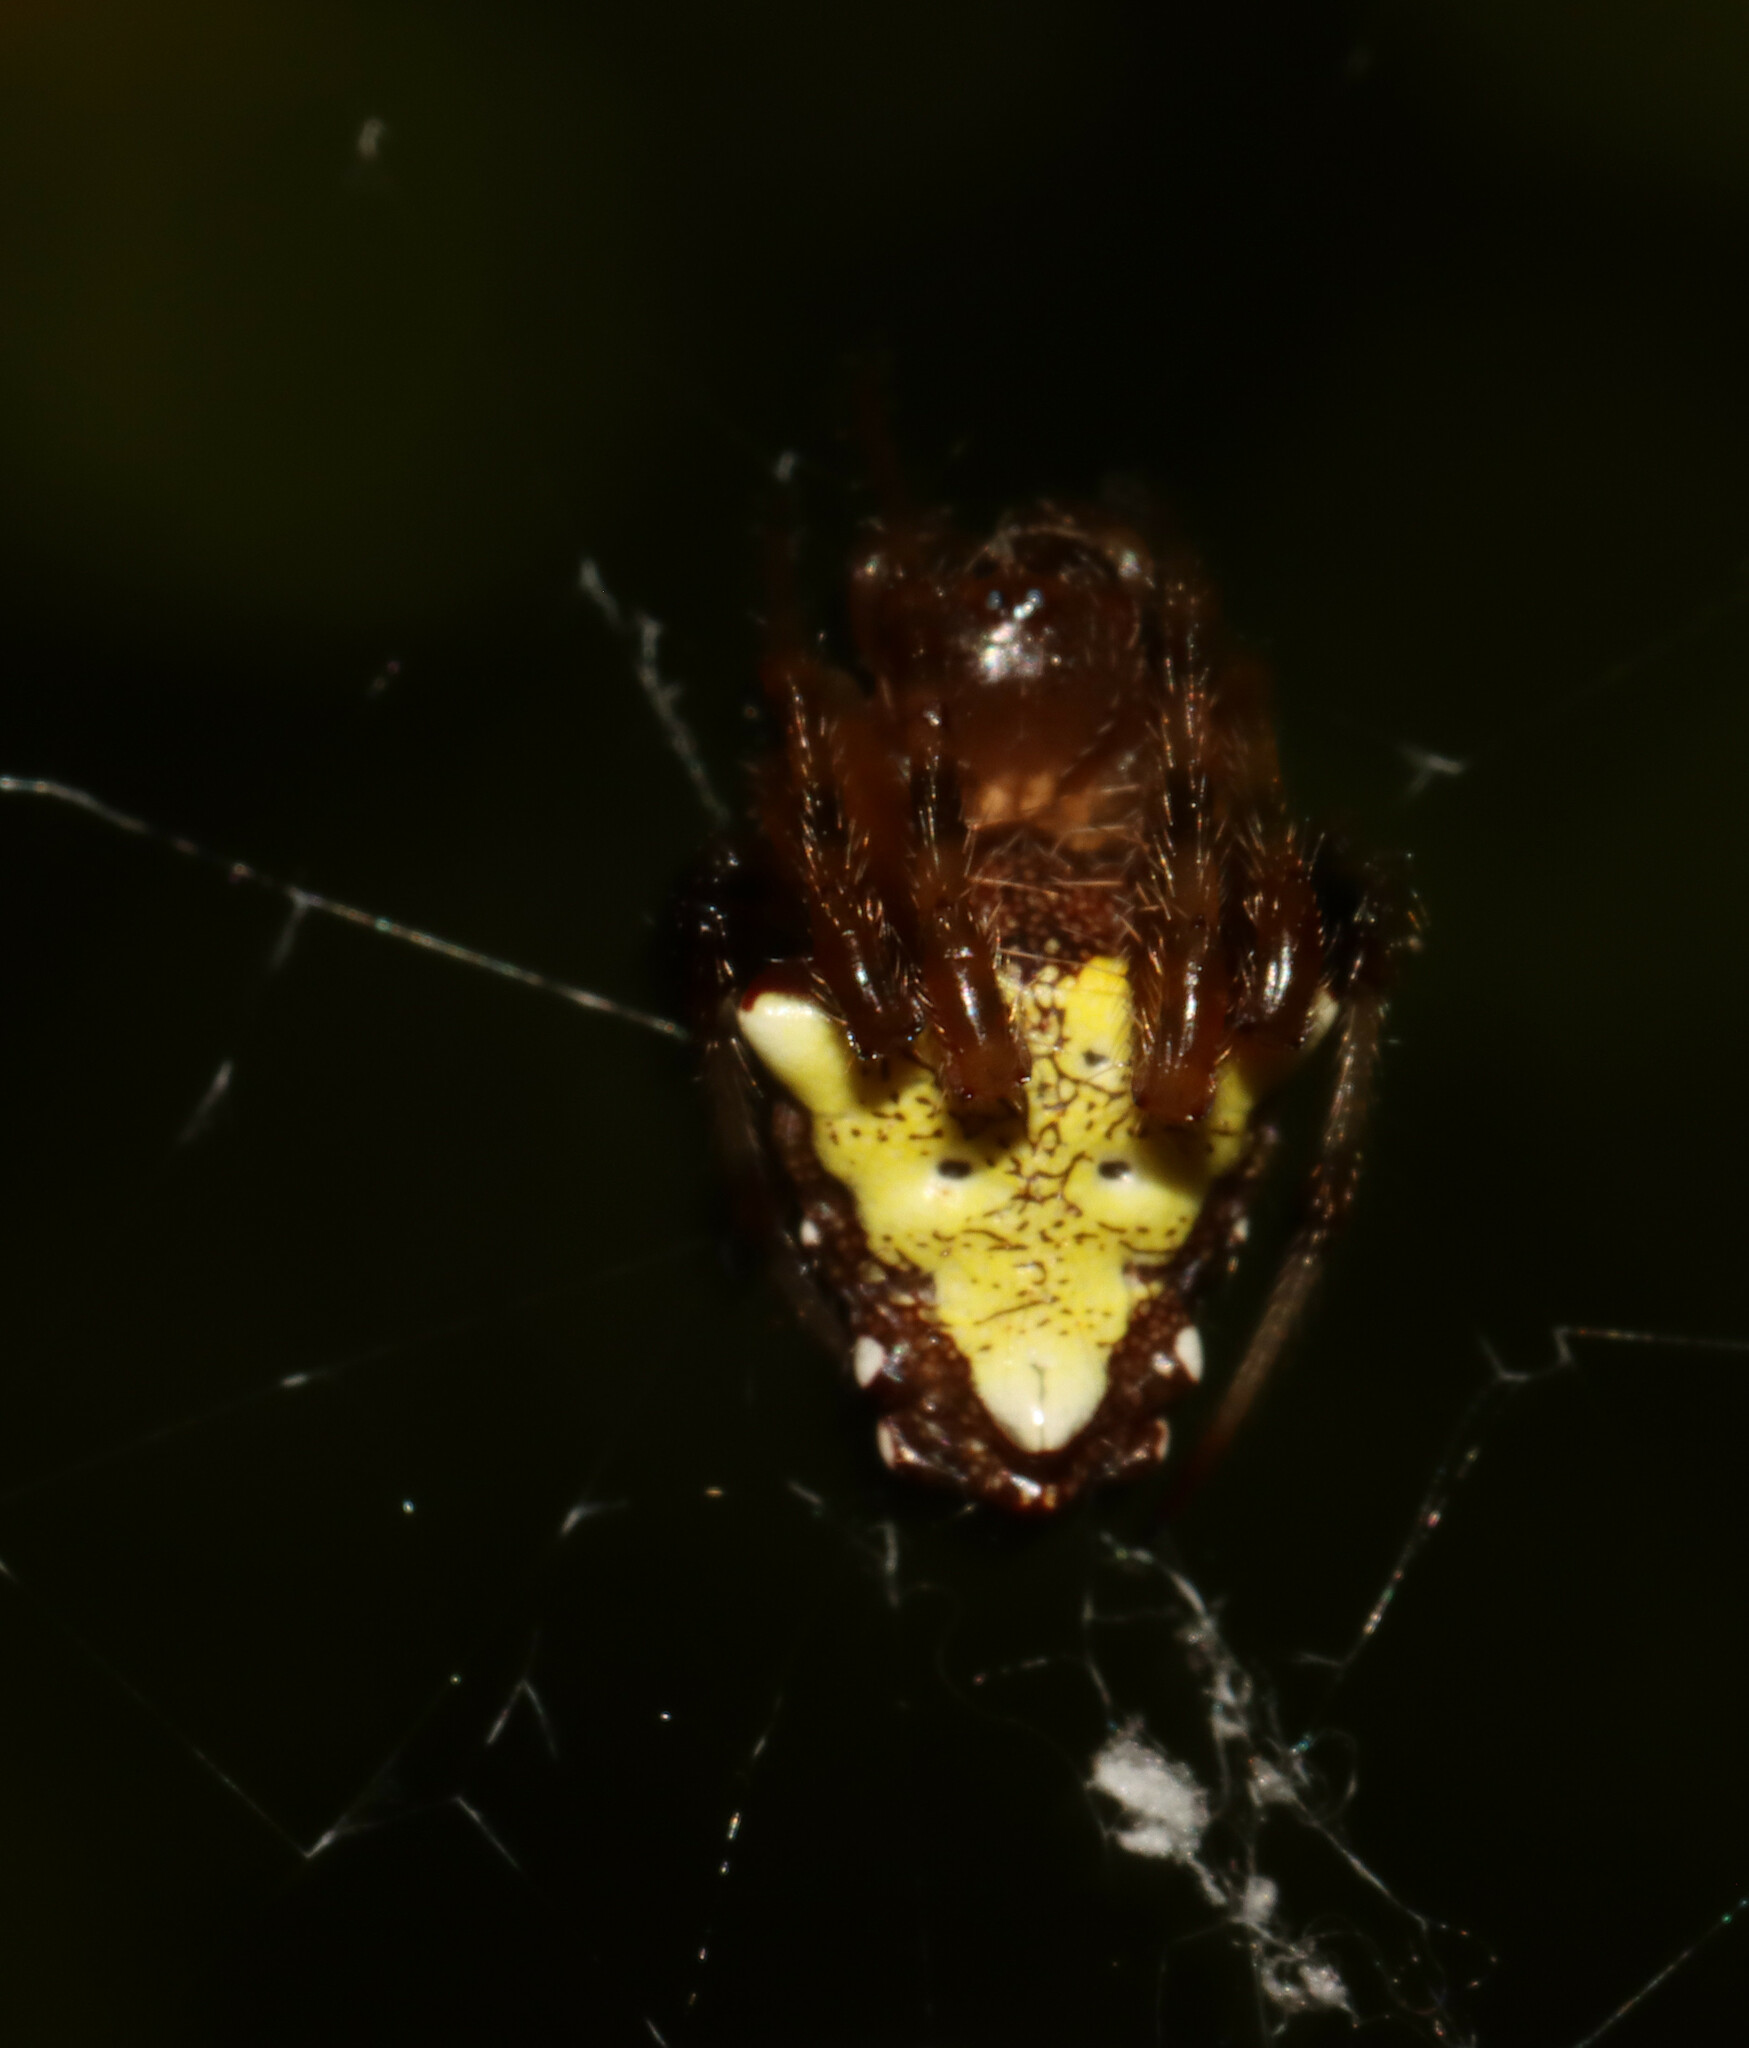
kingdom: Animalia
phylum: Arthropoda
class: Arachnida
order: Araneae
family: Araneidae
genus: Verrucosa
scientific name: Verrucosa arenata
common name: Orb weavers
